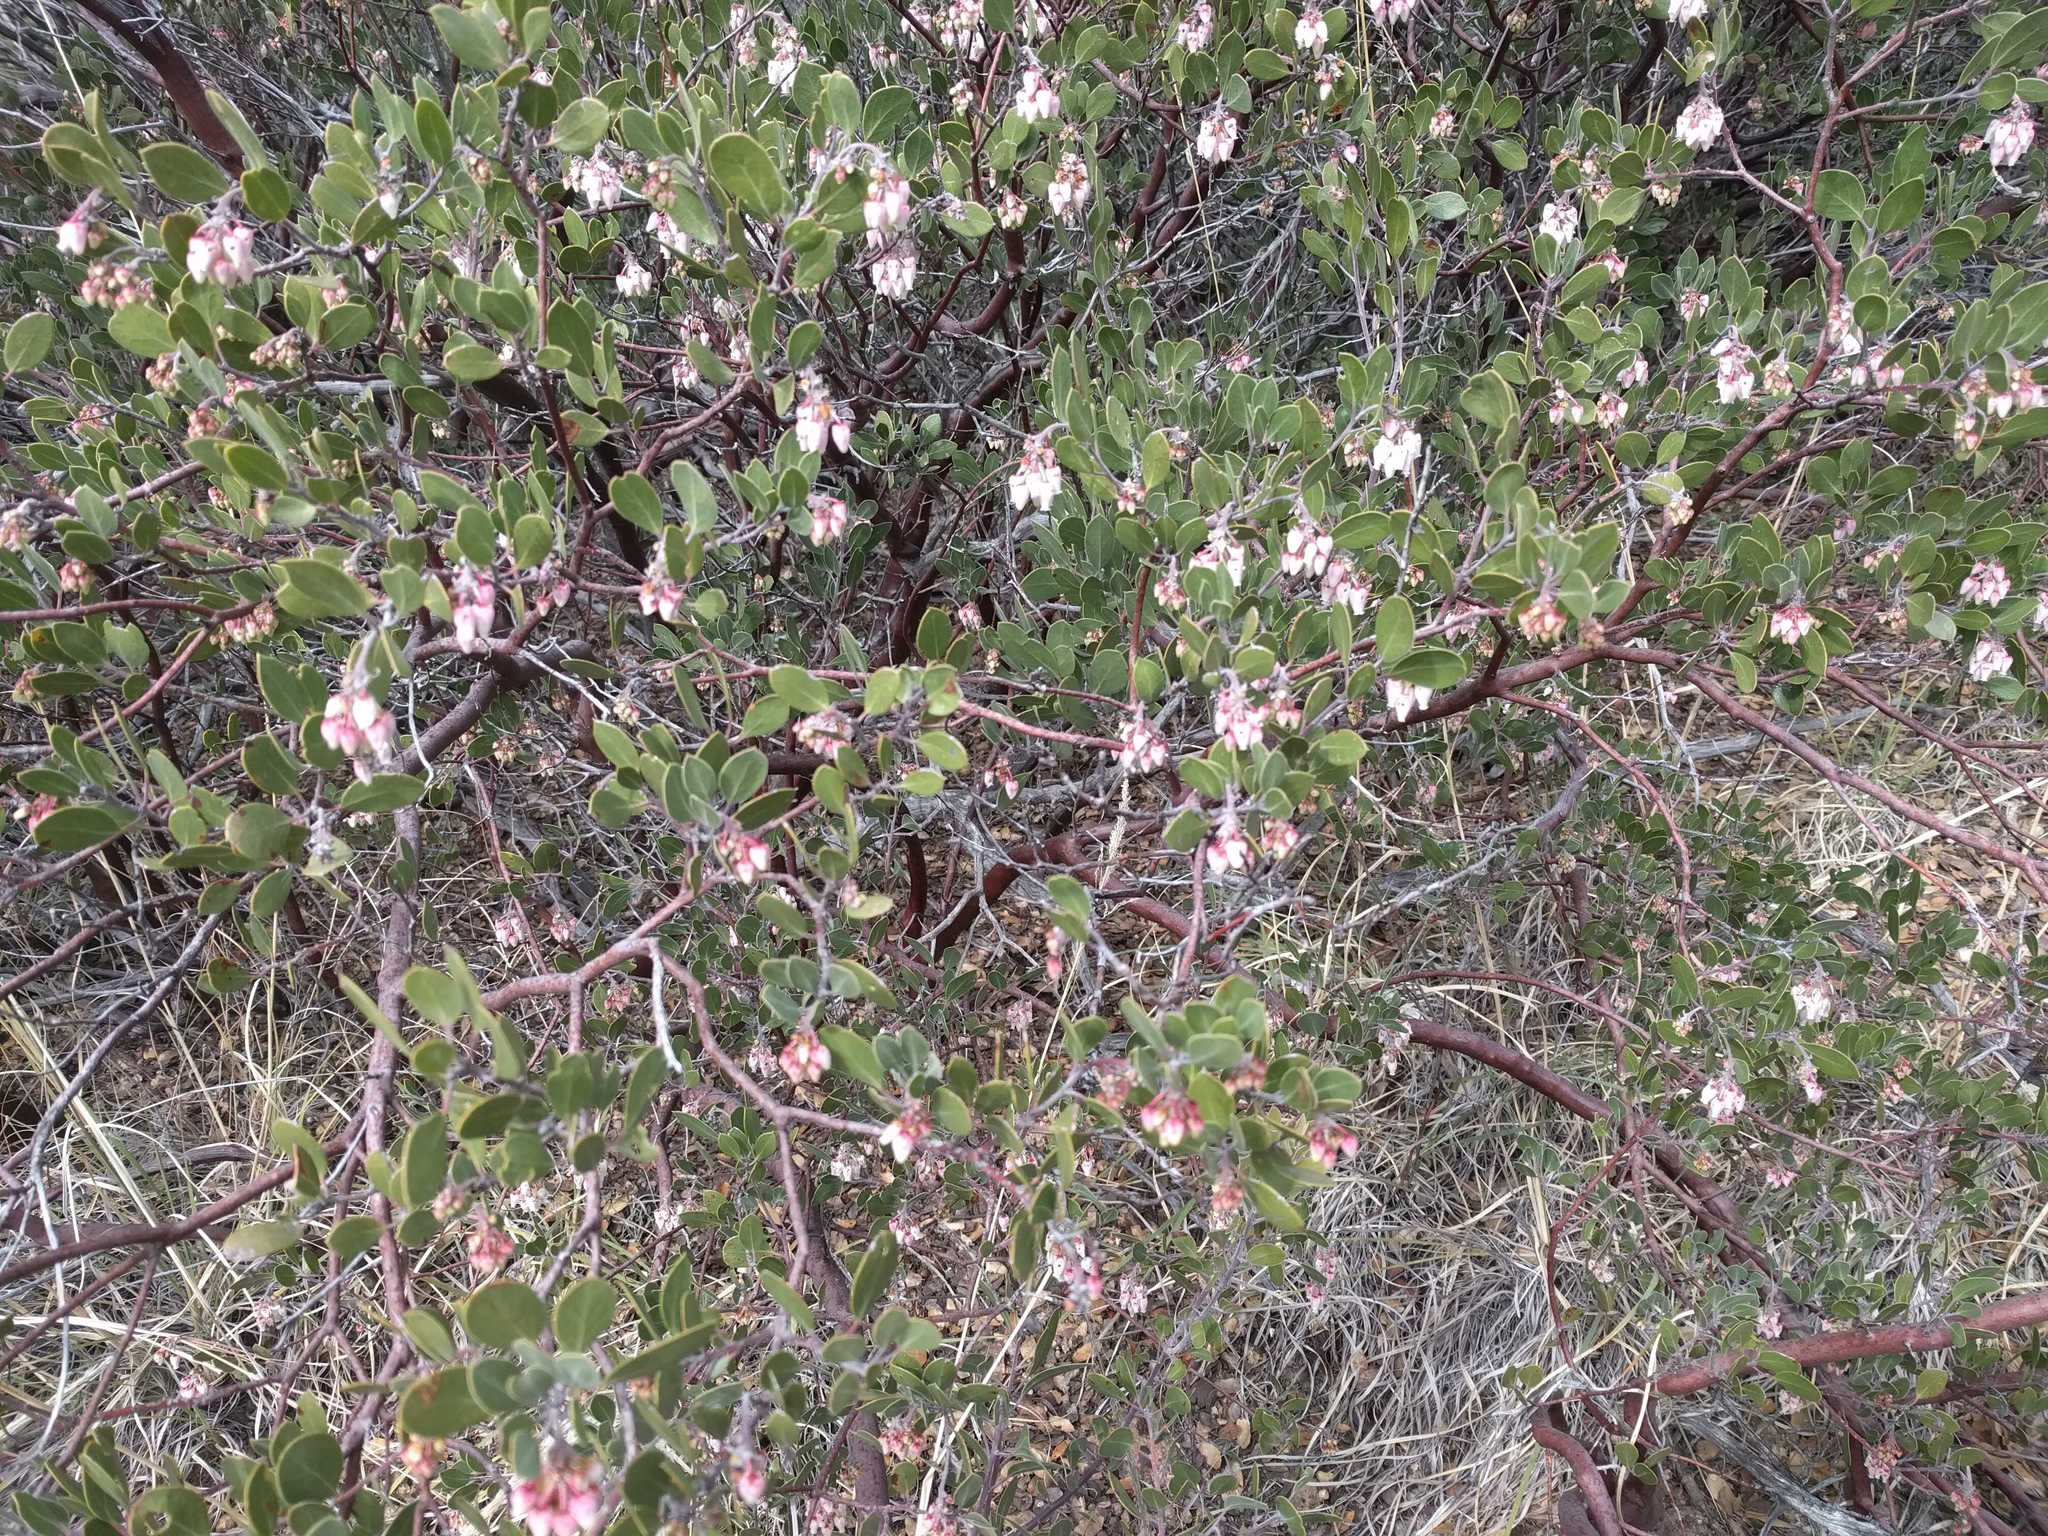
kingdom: Plantae
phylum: Tracheophyta
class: Magnoliopsida
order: Ericales
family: Ericaceae
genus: Arctostaphylos
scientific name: Arctostaphylos pungens
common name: Mexican manzanita
